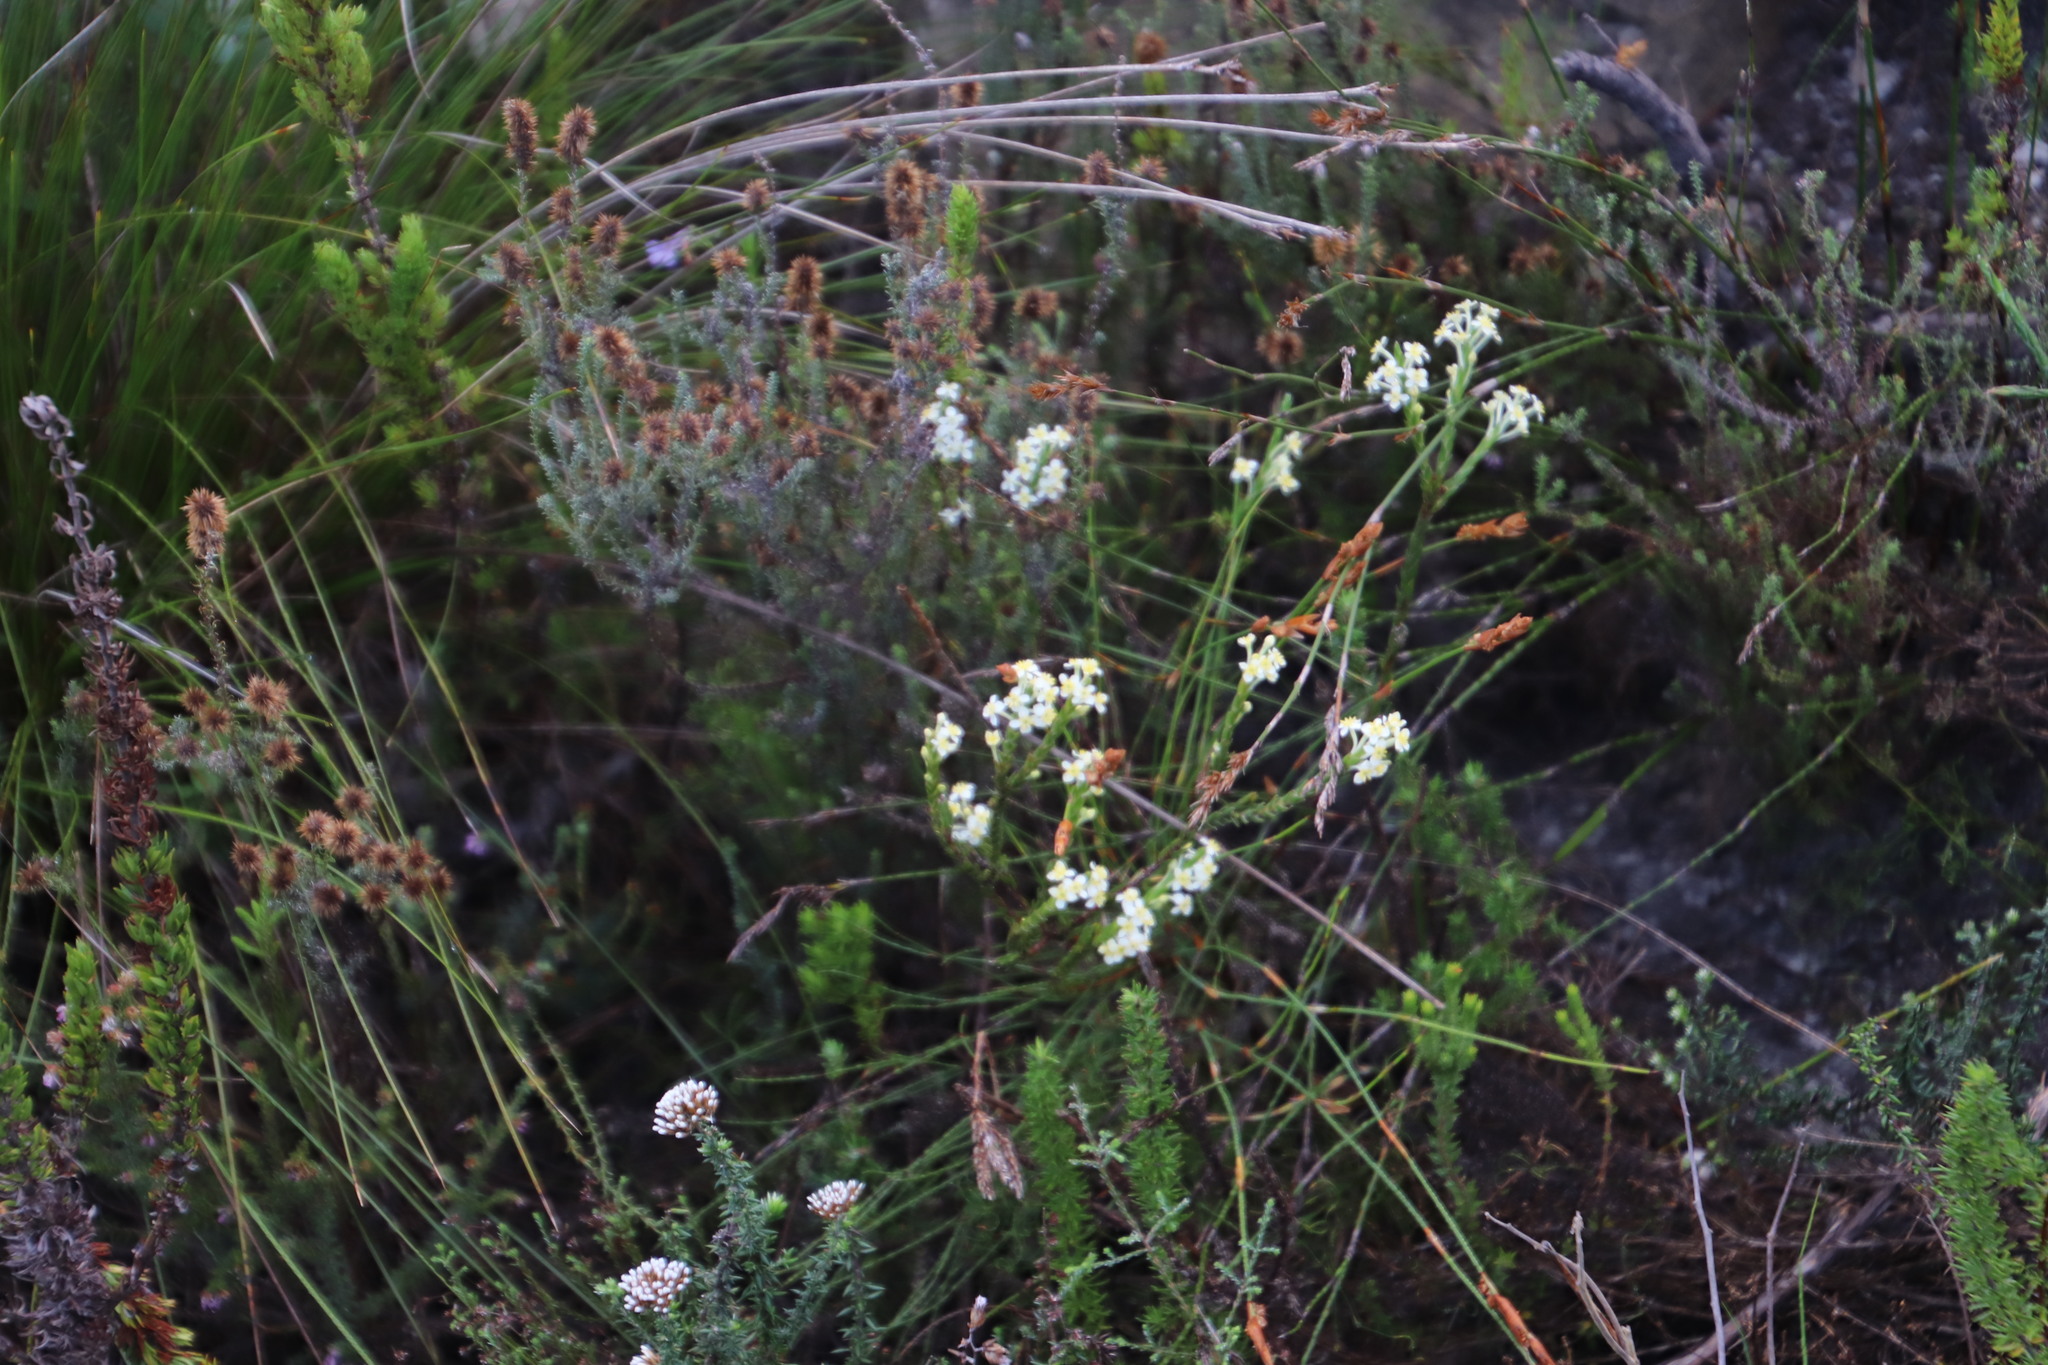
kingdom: Plantae
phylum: Tracheophyta
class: Magnoliopsida
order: Malvales
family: Thymelaeaceae
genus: Struthiola
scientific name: Struthiola ciliata
